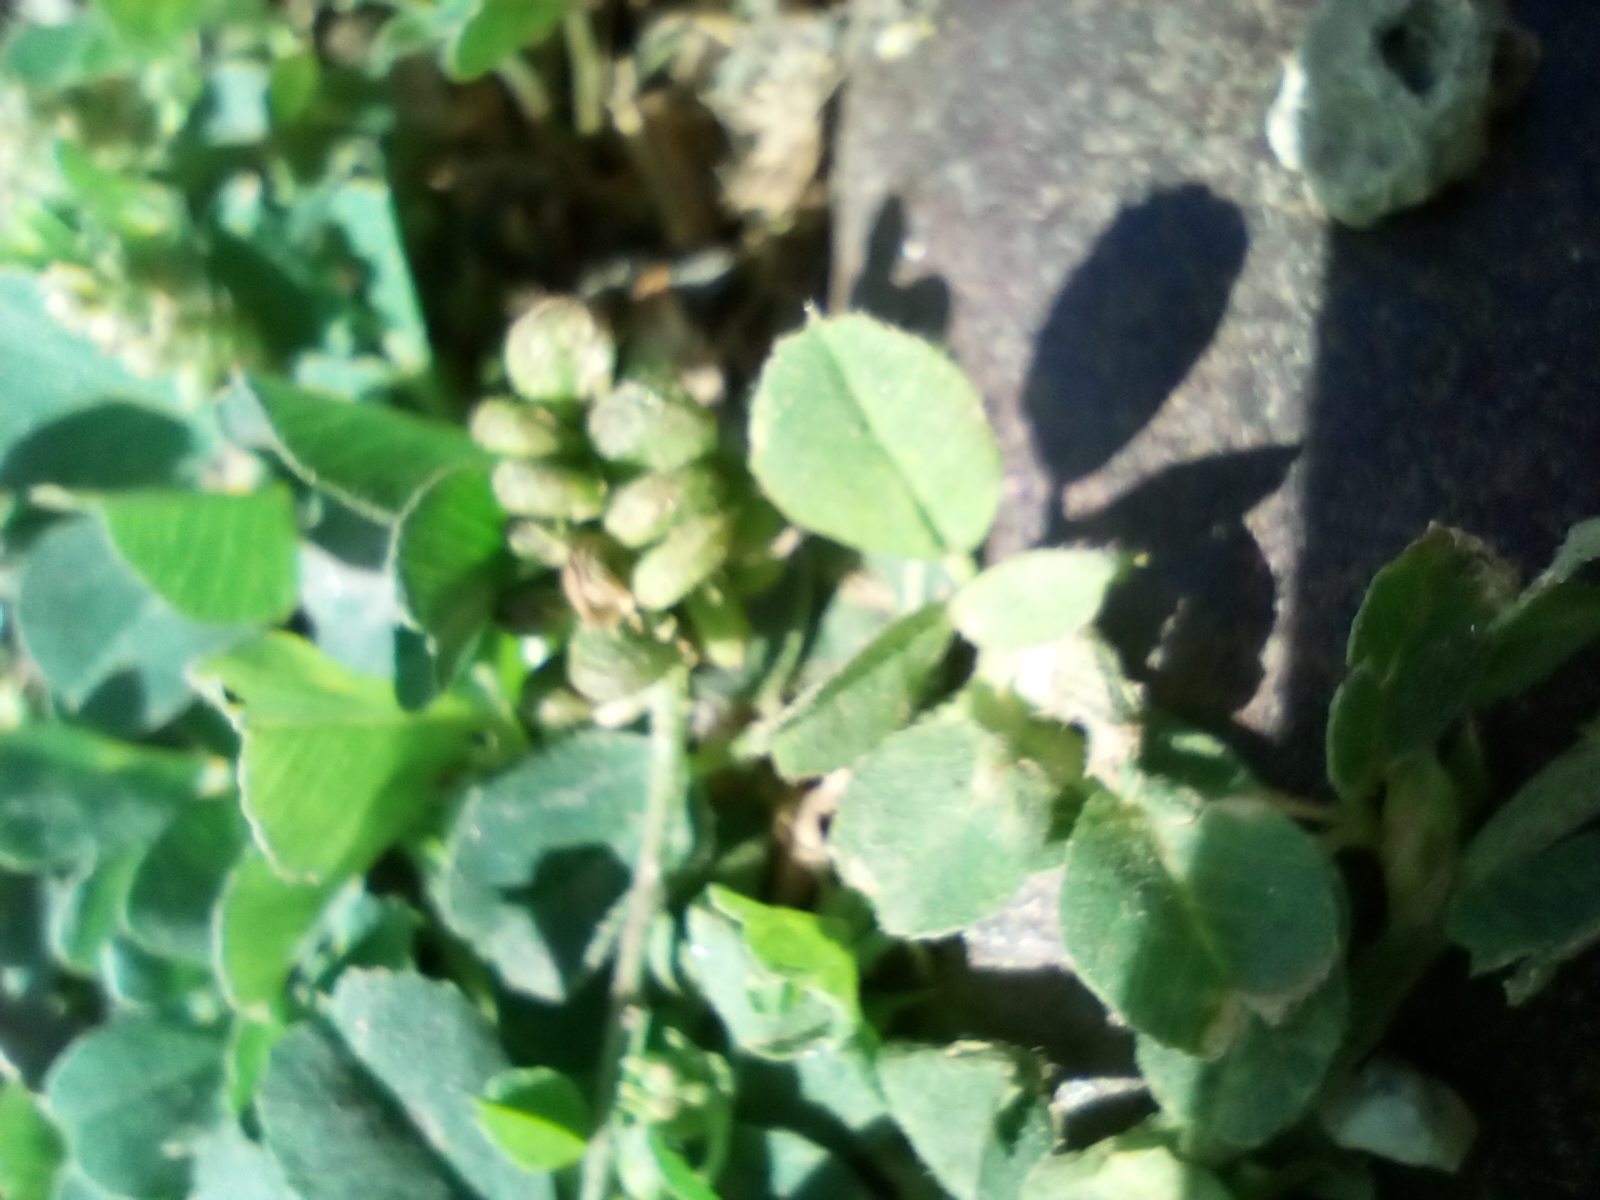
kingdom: Plantae
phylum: Tracheophyta
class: Magnoliopsida
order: Fabales
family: Fabaceae
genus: Medicago
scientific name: Medicago lupulina
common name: Black medick
